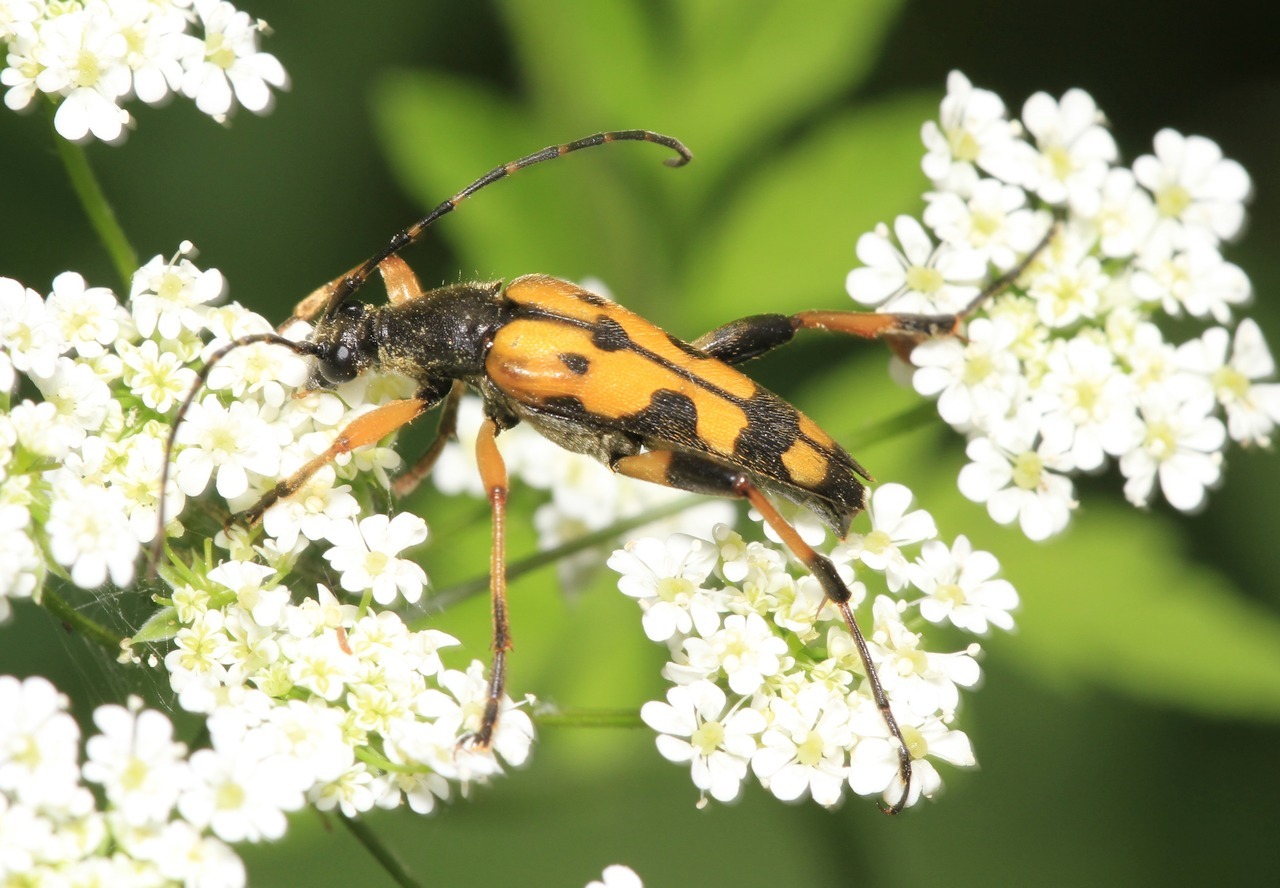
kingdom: Animalia
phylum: Arthropoda
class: Insecta
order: Coleoptera
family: Cerambycidae
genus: Rutpela
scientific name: Rutpela maculata
